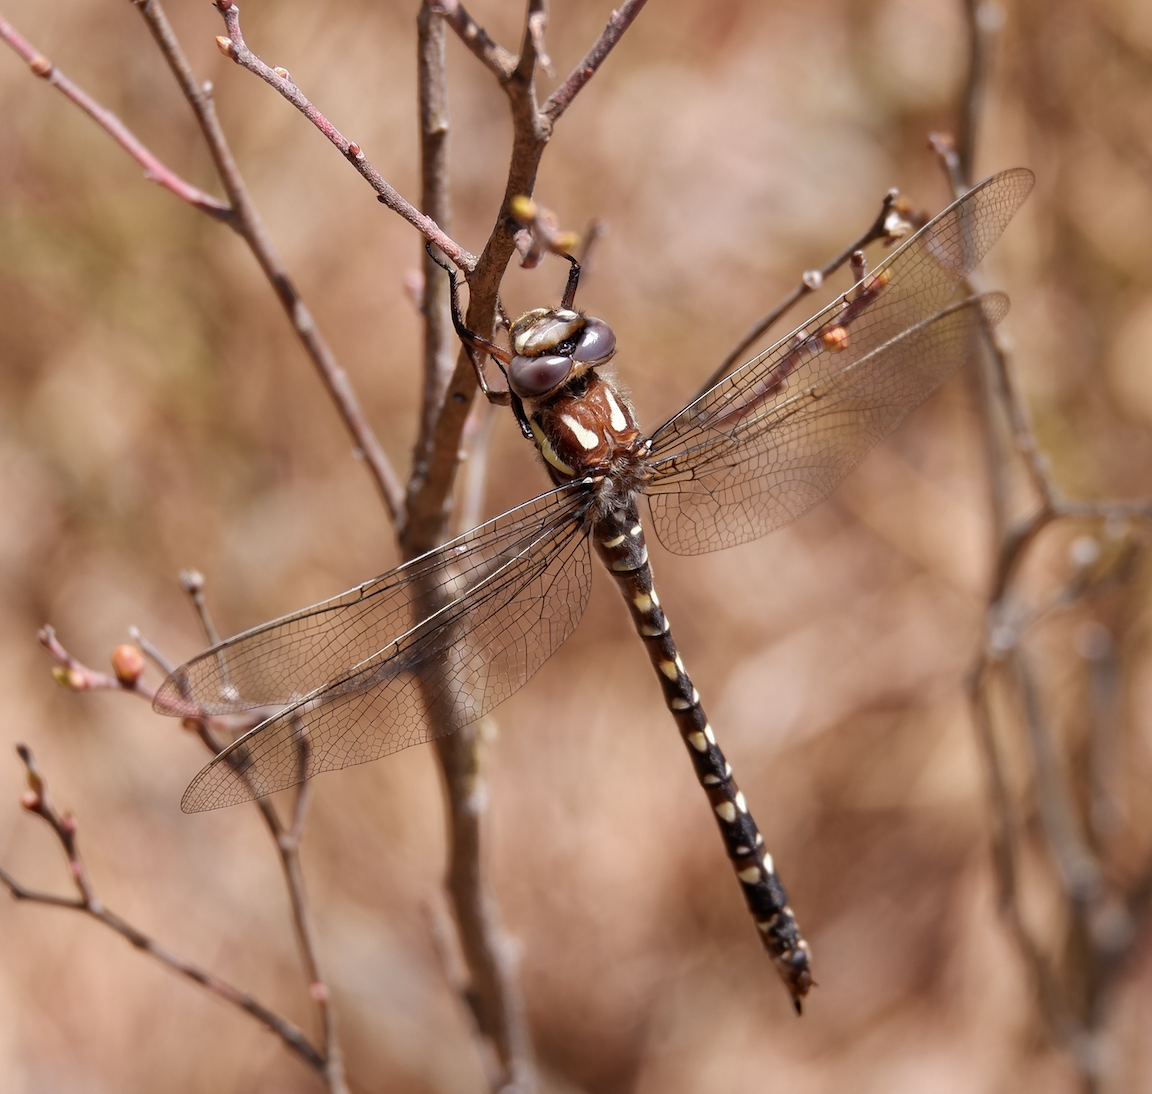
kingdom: Animalia
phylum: Arthropoda
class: Insecta
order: Odonata
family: Cordulegastridae
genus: Cordulegaster
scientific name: Cordulegaster maculata
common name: Twin-spotted spiketail
